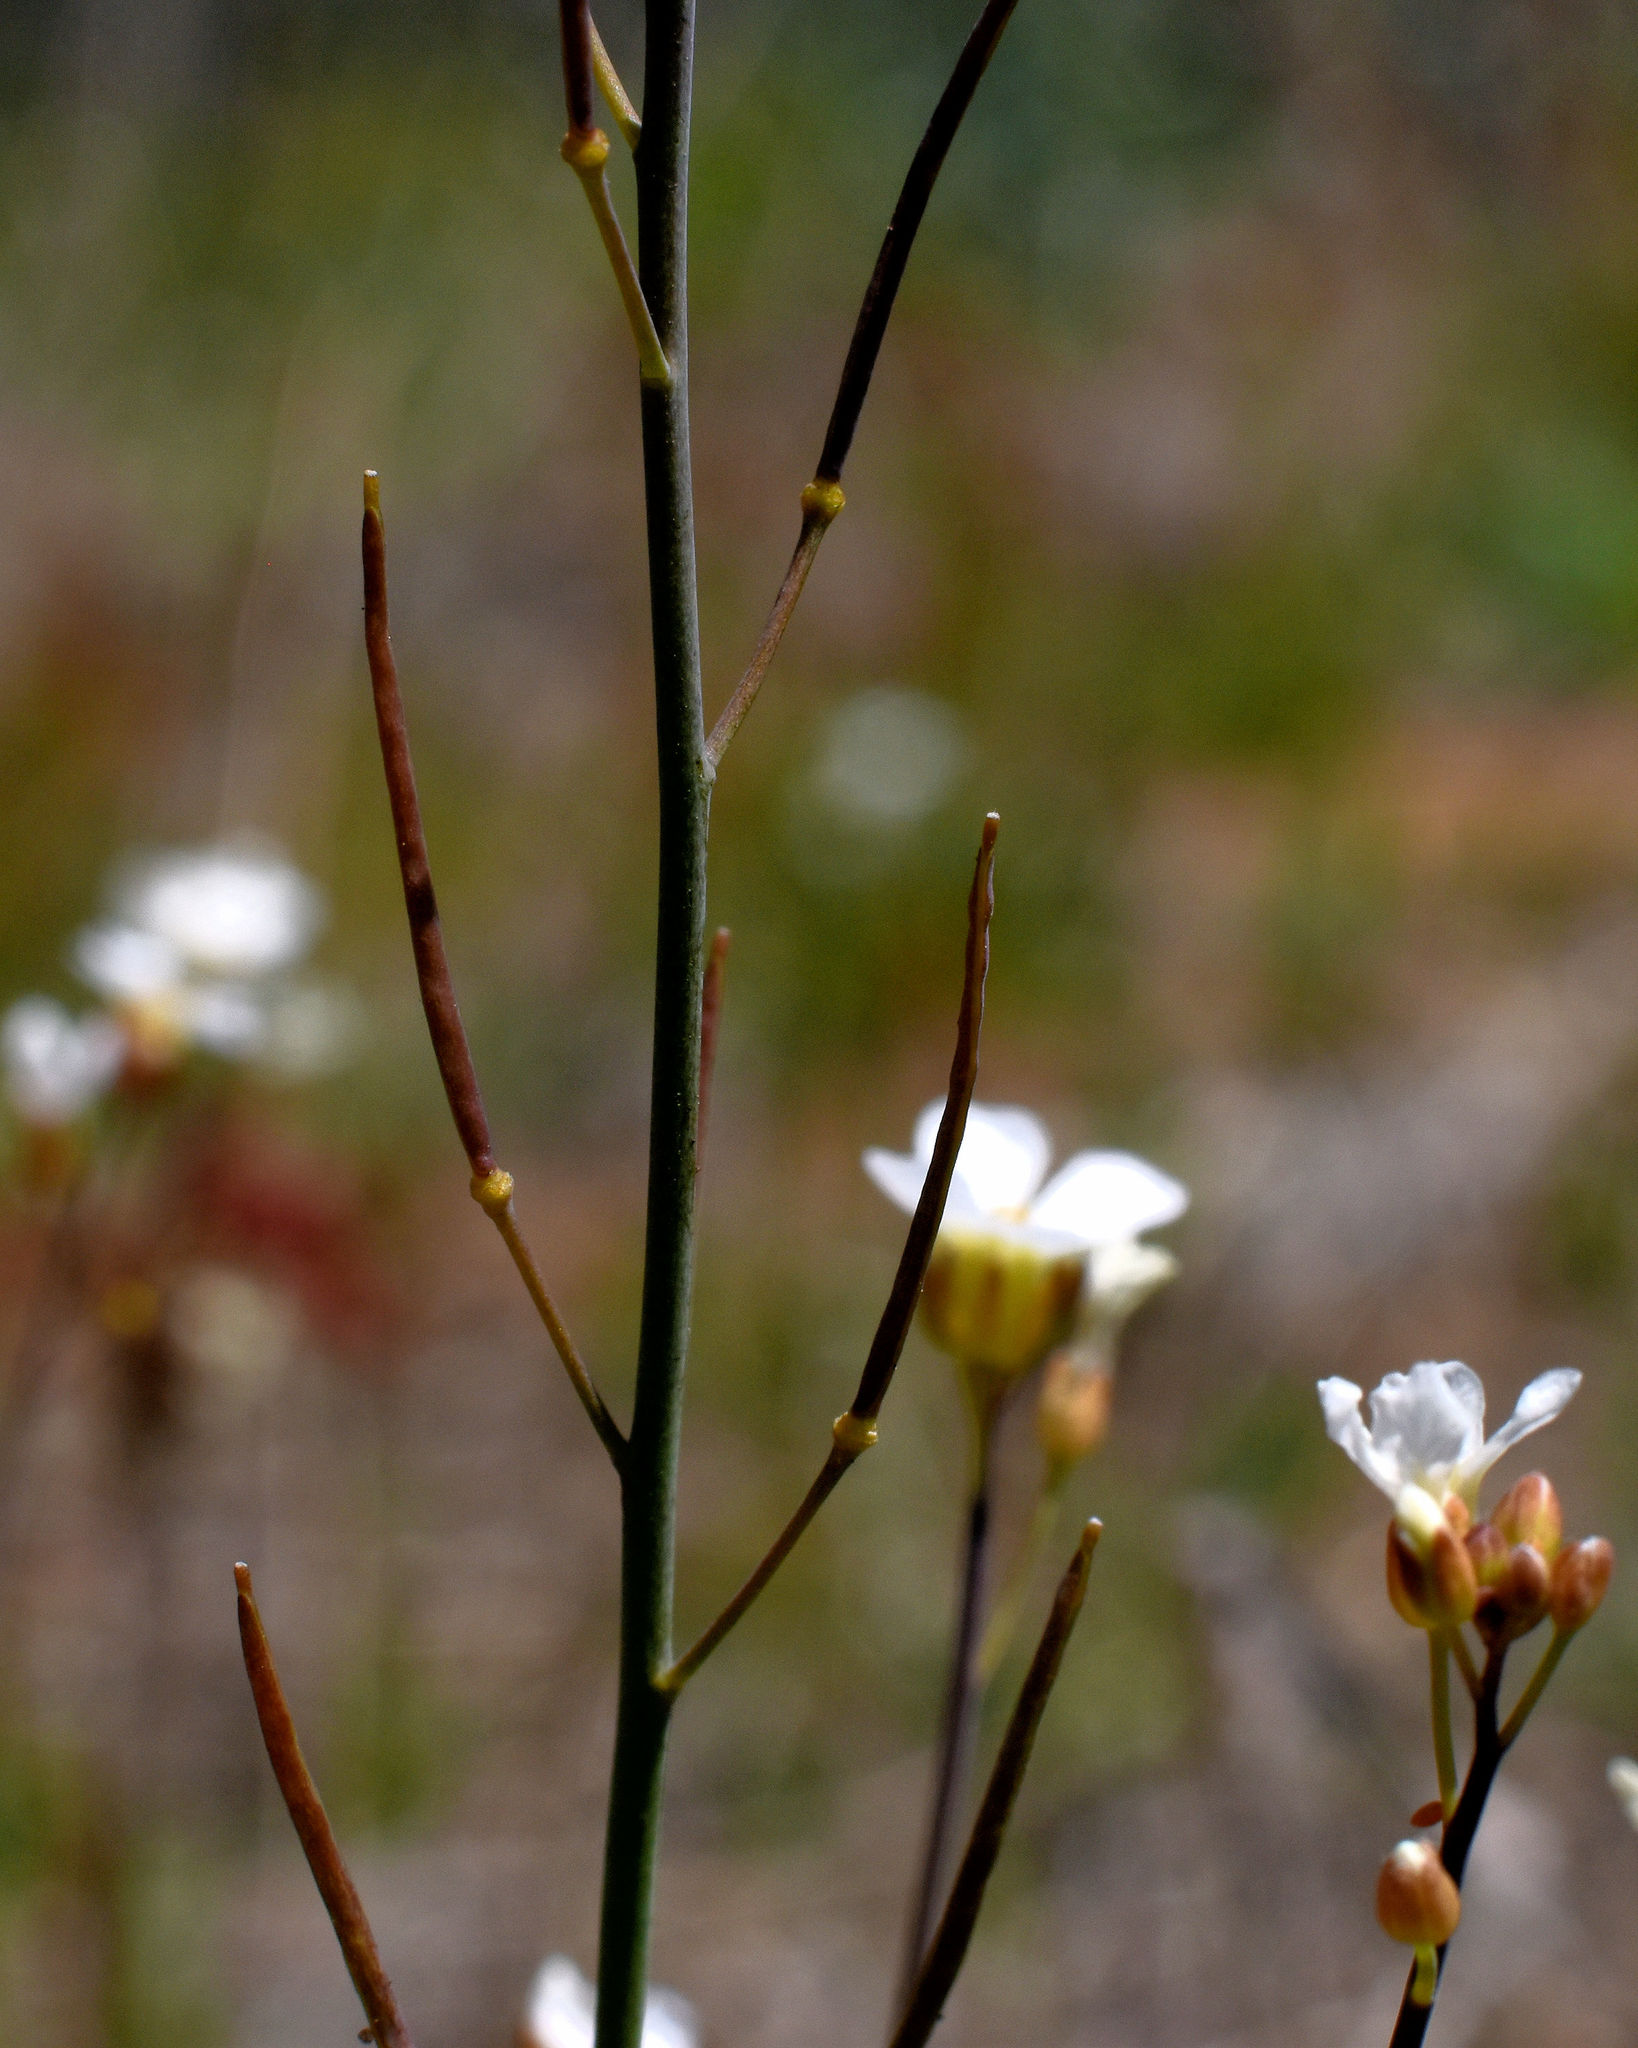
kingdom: Plantae
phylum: Tracheophyta
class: Magnoliopsida
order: Brassicales
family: Brassicaceae
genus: Arabidopsis
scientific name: Arabidopsis lyrata
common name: Lyrate rockcress
